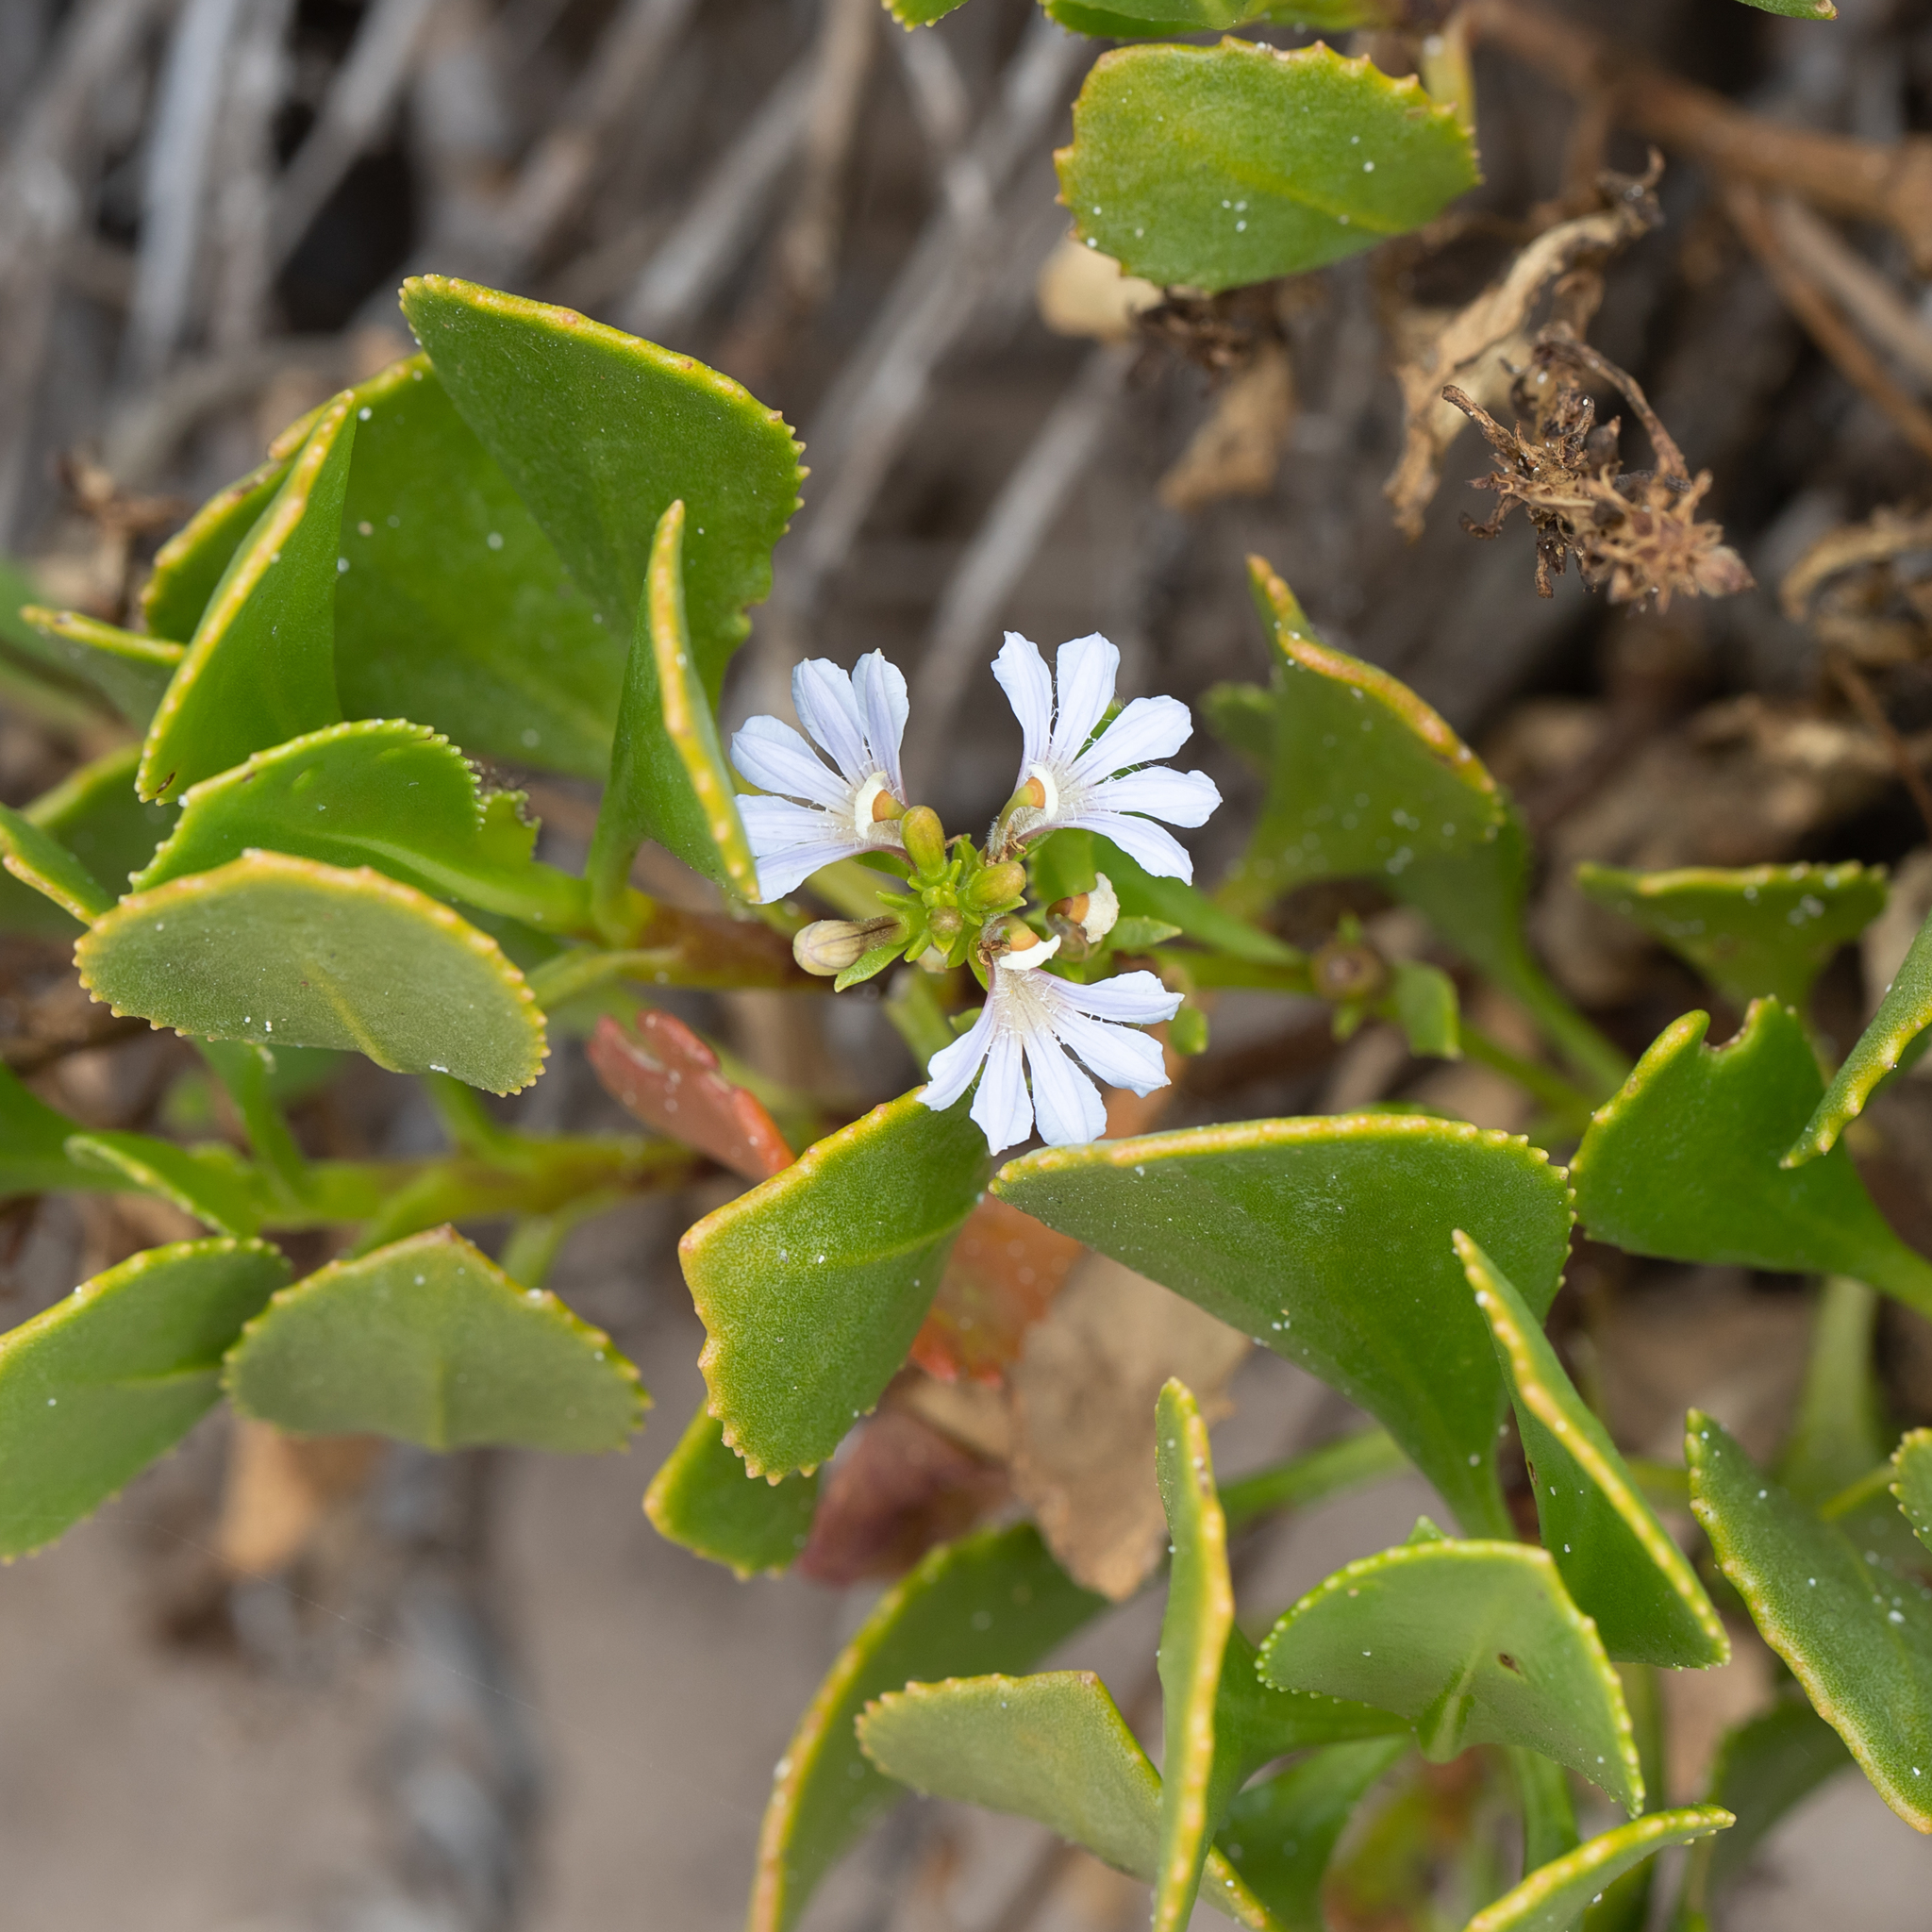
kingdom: Plantae
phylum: Tracheophyta
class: Magnoliopsida
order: Asterales
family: Goodeniaceae
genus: Scaevola
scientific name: Scaevola crassifolia
